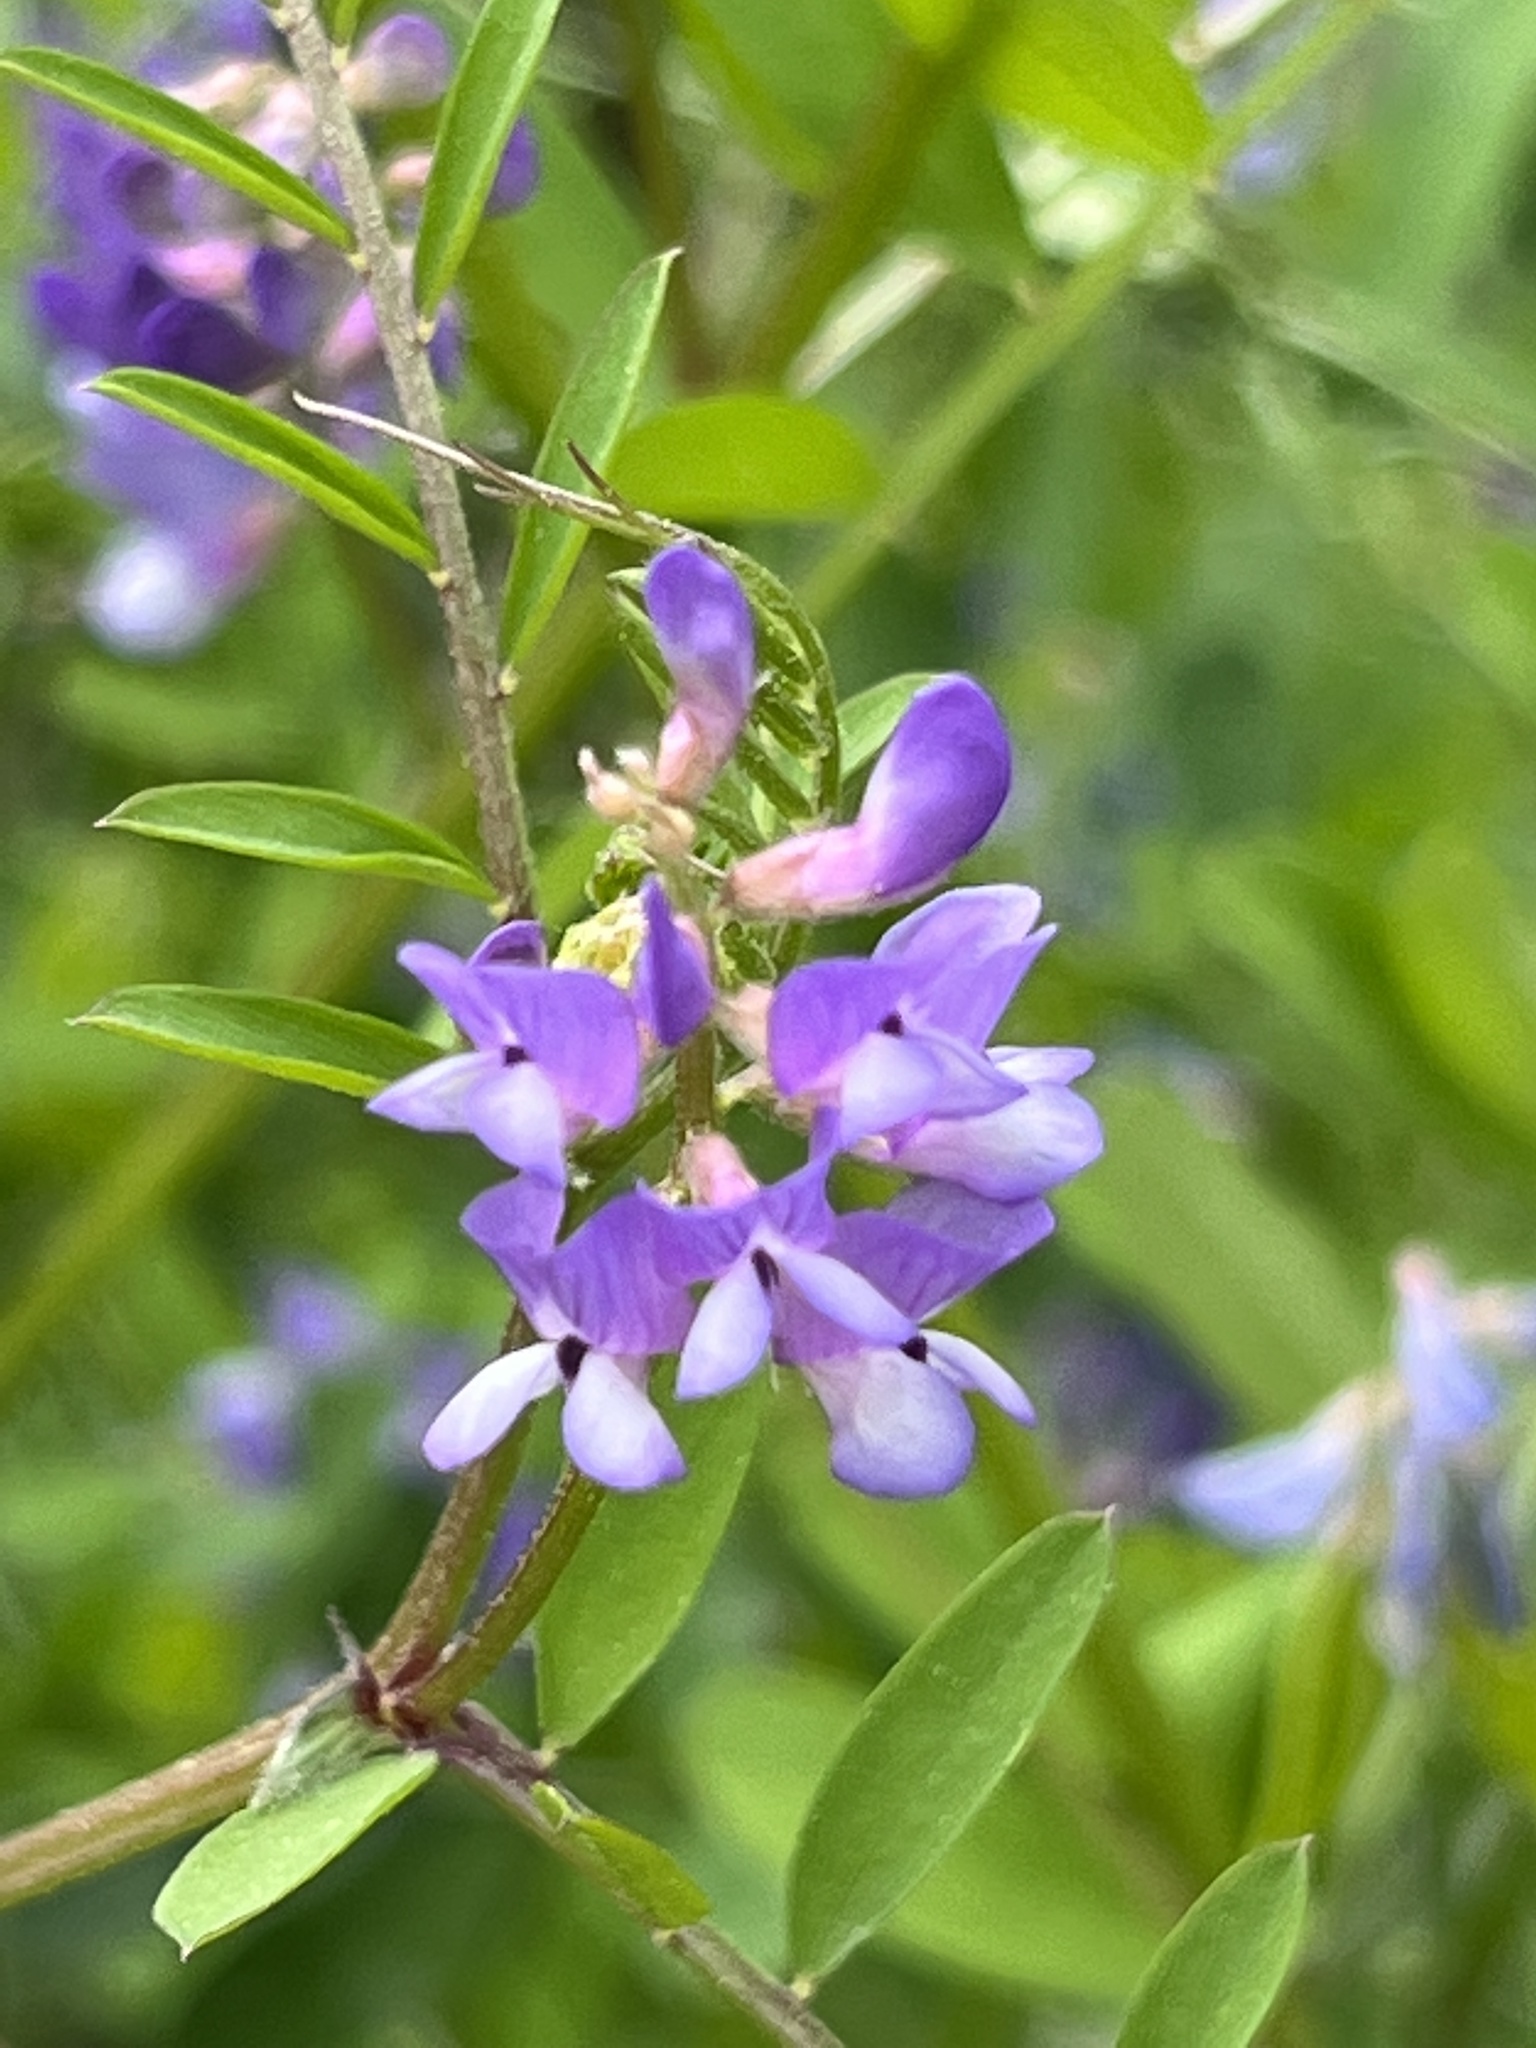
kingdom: Plantae
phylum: Tracheophyta
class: Magnoliopsida
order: Fabales
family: Fabaceae
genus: Vicia
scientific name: Vicia ludoviciana
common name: Louisiana vetch
